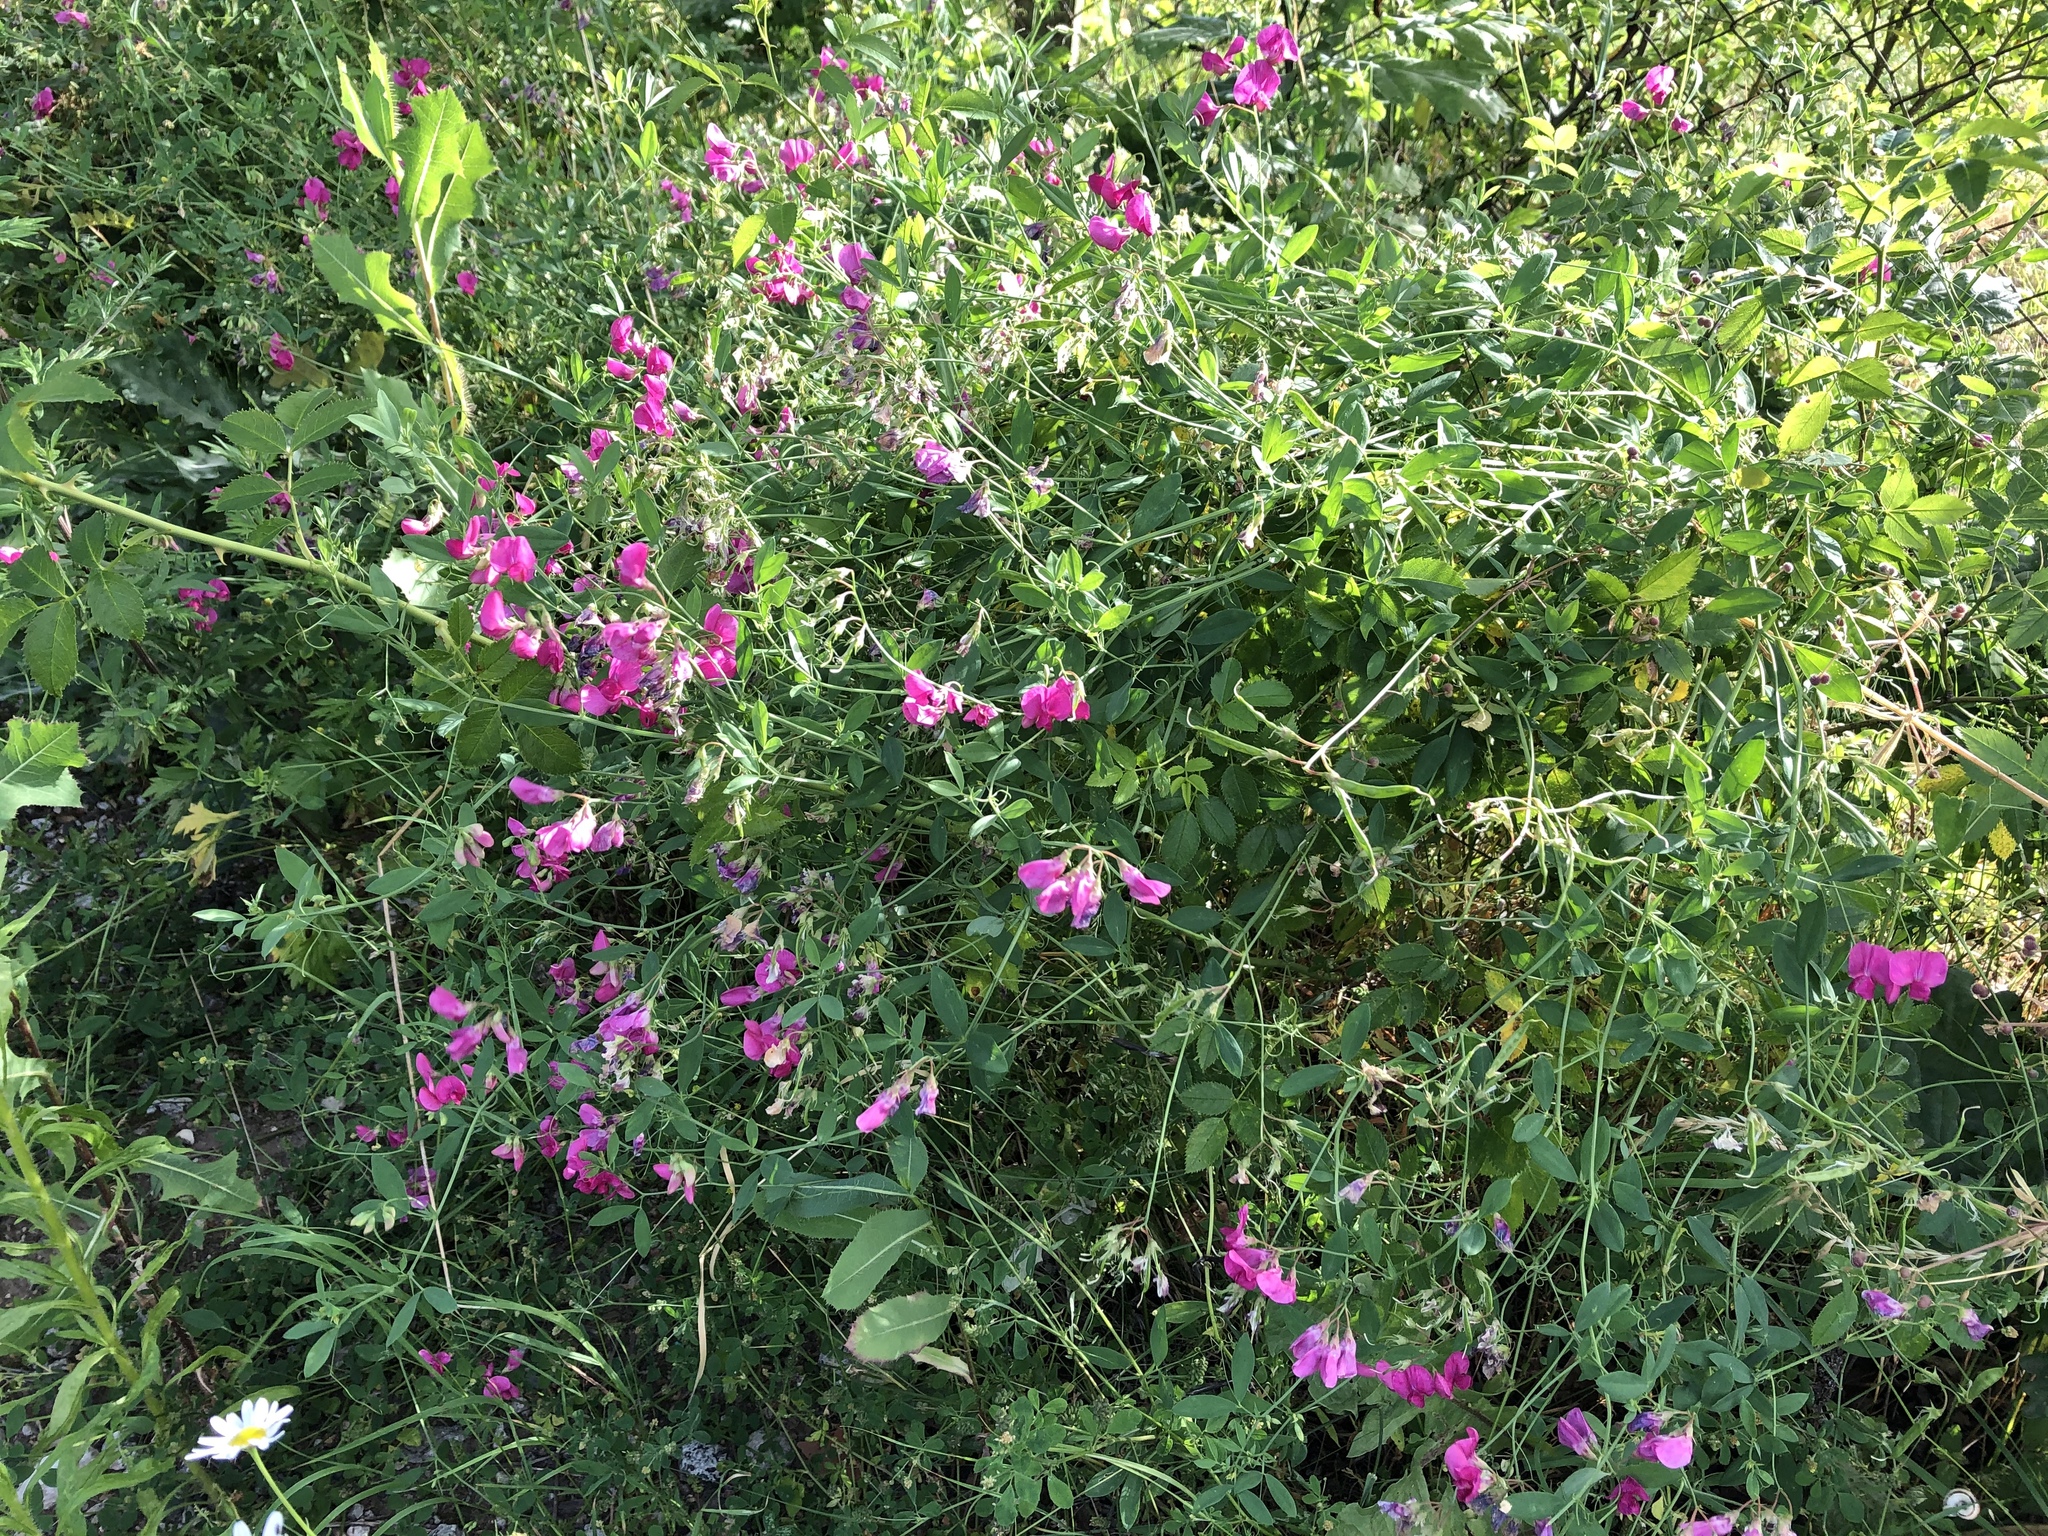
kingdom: Plantae
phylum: Tracheophyta
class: Magnoliopsida
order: Fabales
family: Fabaceae
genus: Lathyrus
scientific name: Lathyrus tuberosus
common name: Tuberous pea
